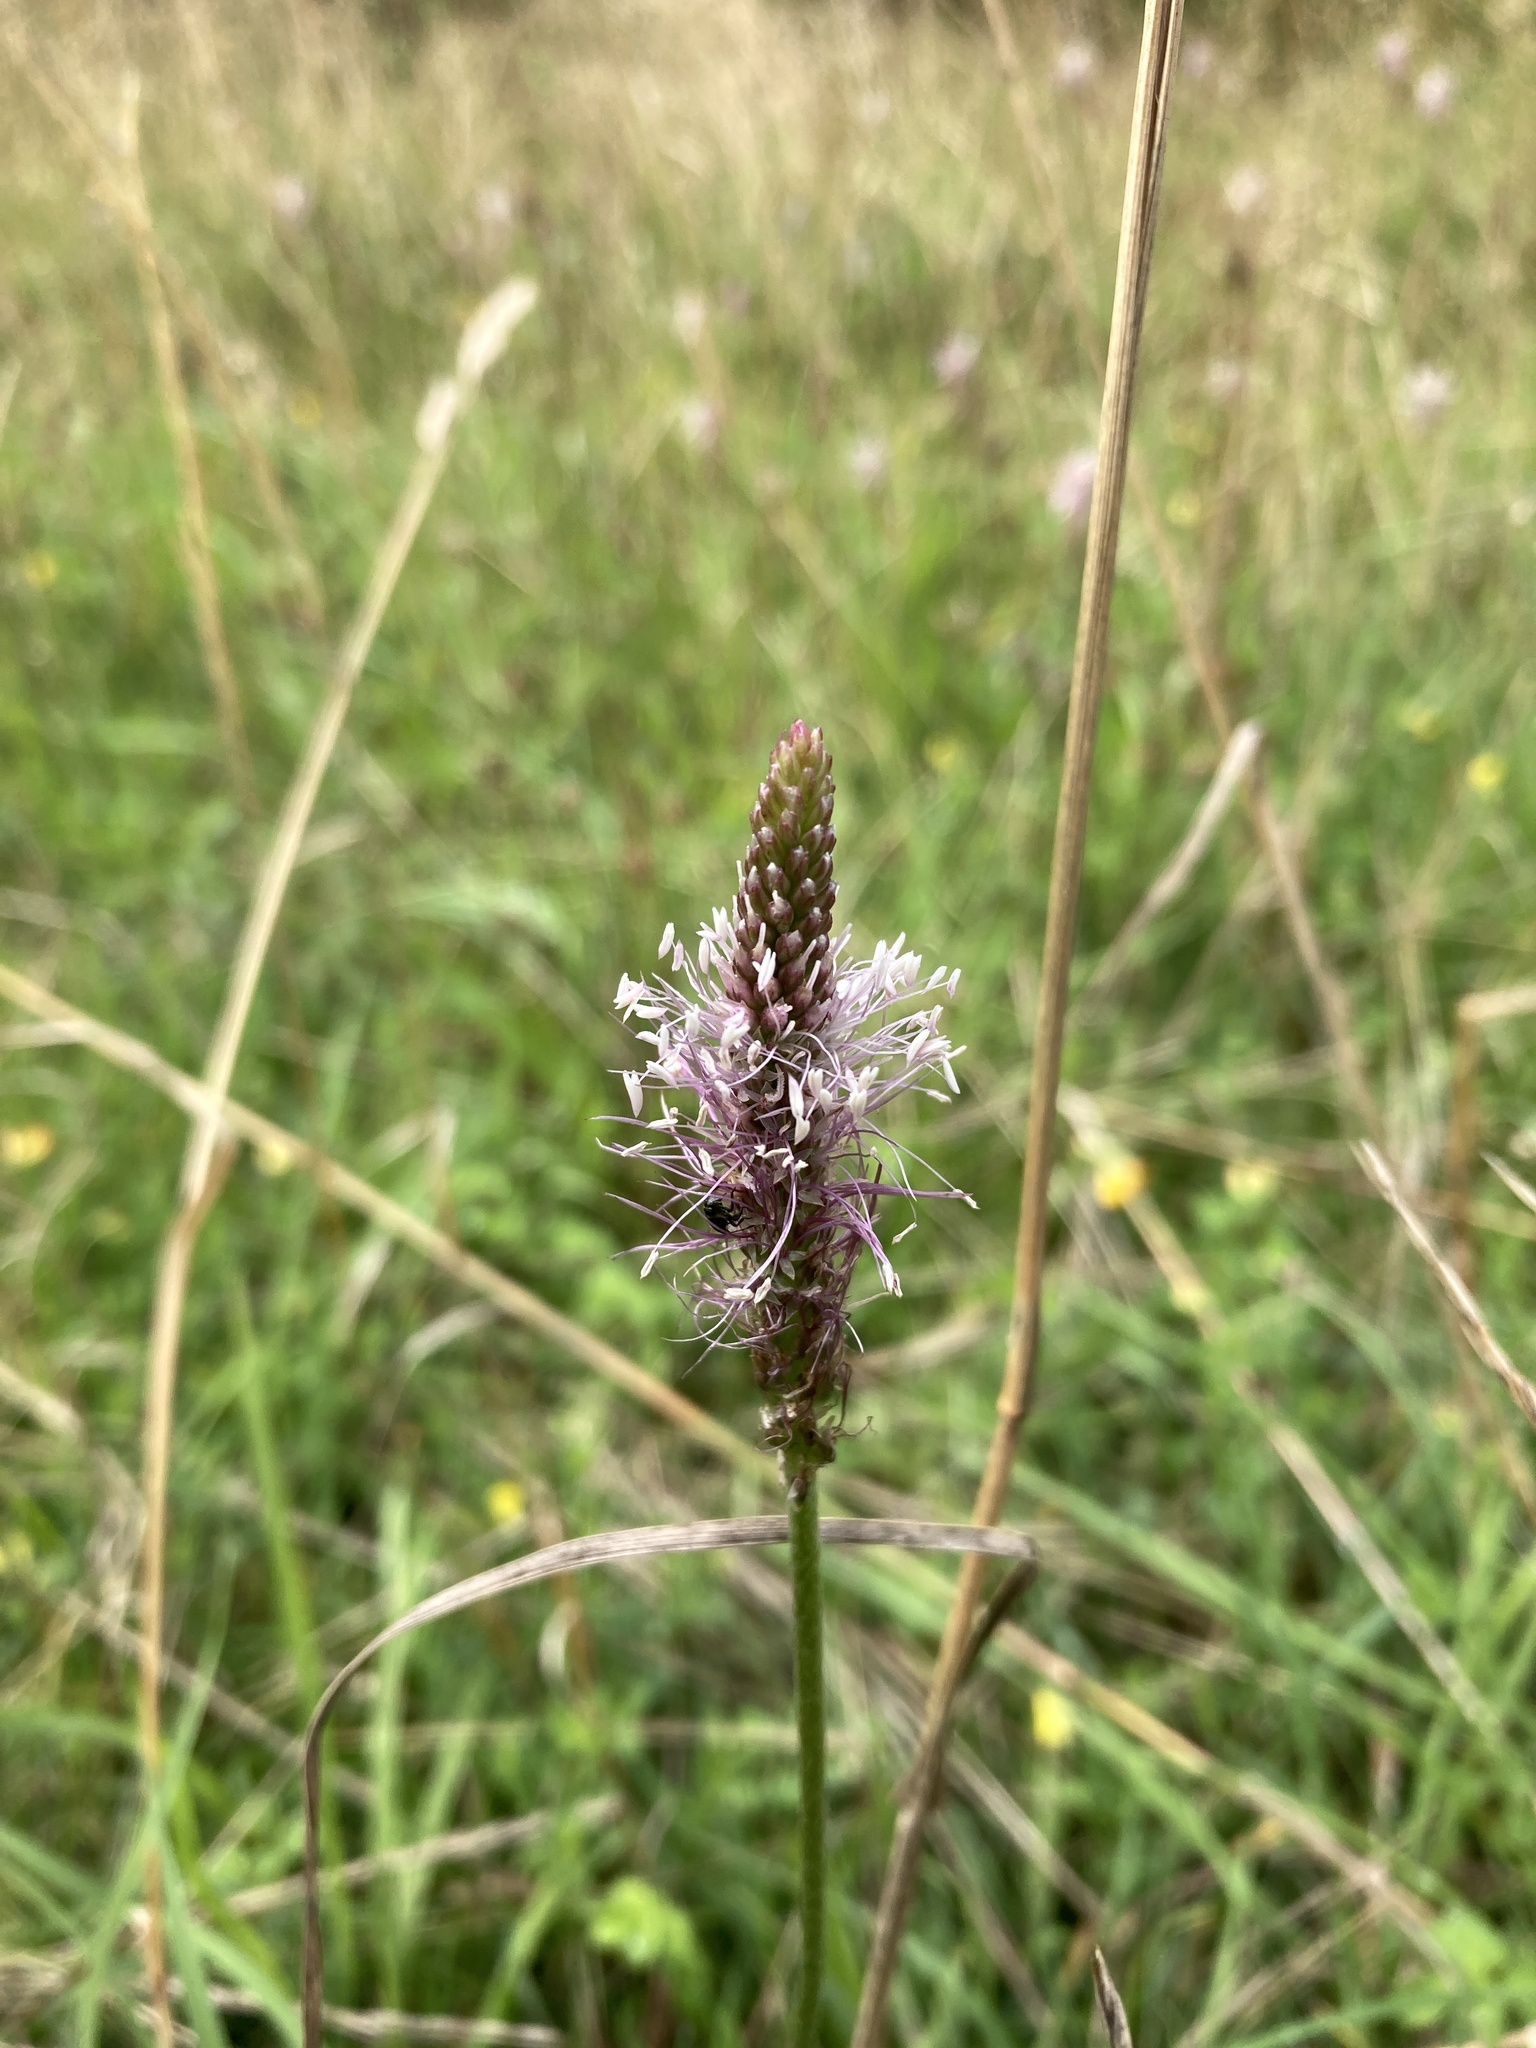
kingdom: Plantae
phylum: Tracheophyta
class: Magnoliopsida
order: Lamiales
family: Plantaginaceae
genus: Plantago
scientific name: Plantago media
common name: Hoary plantain
